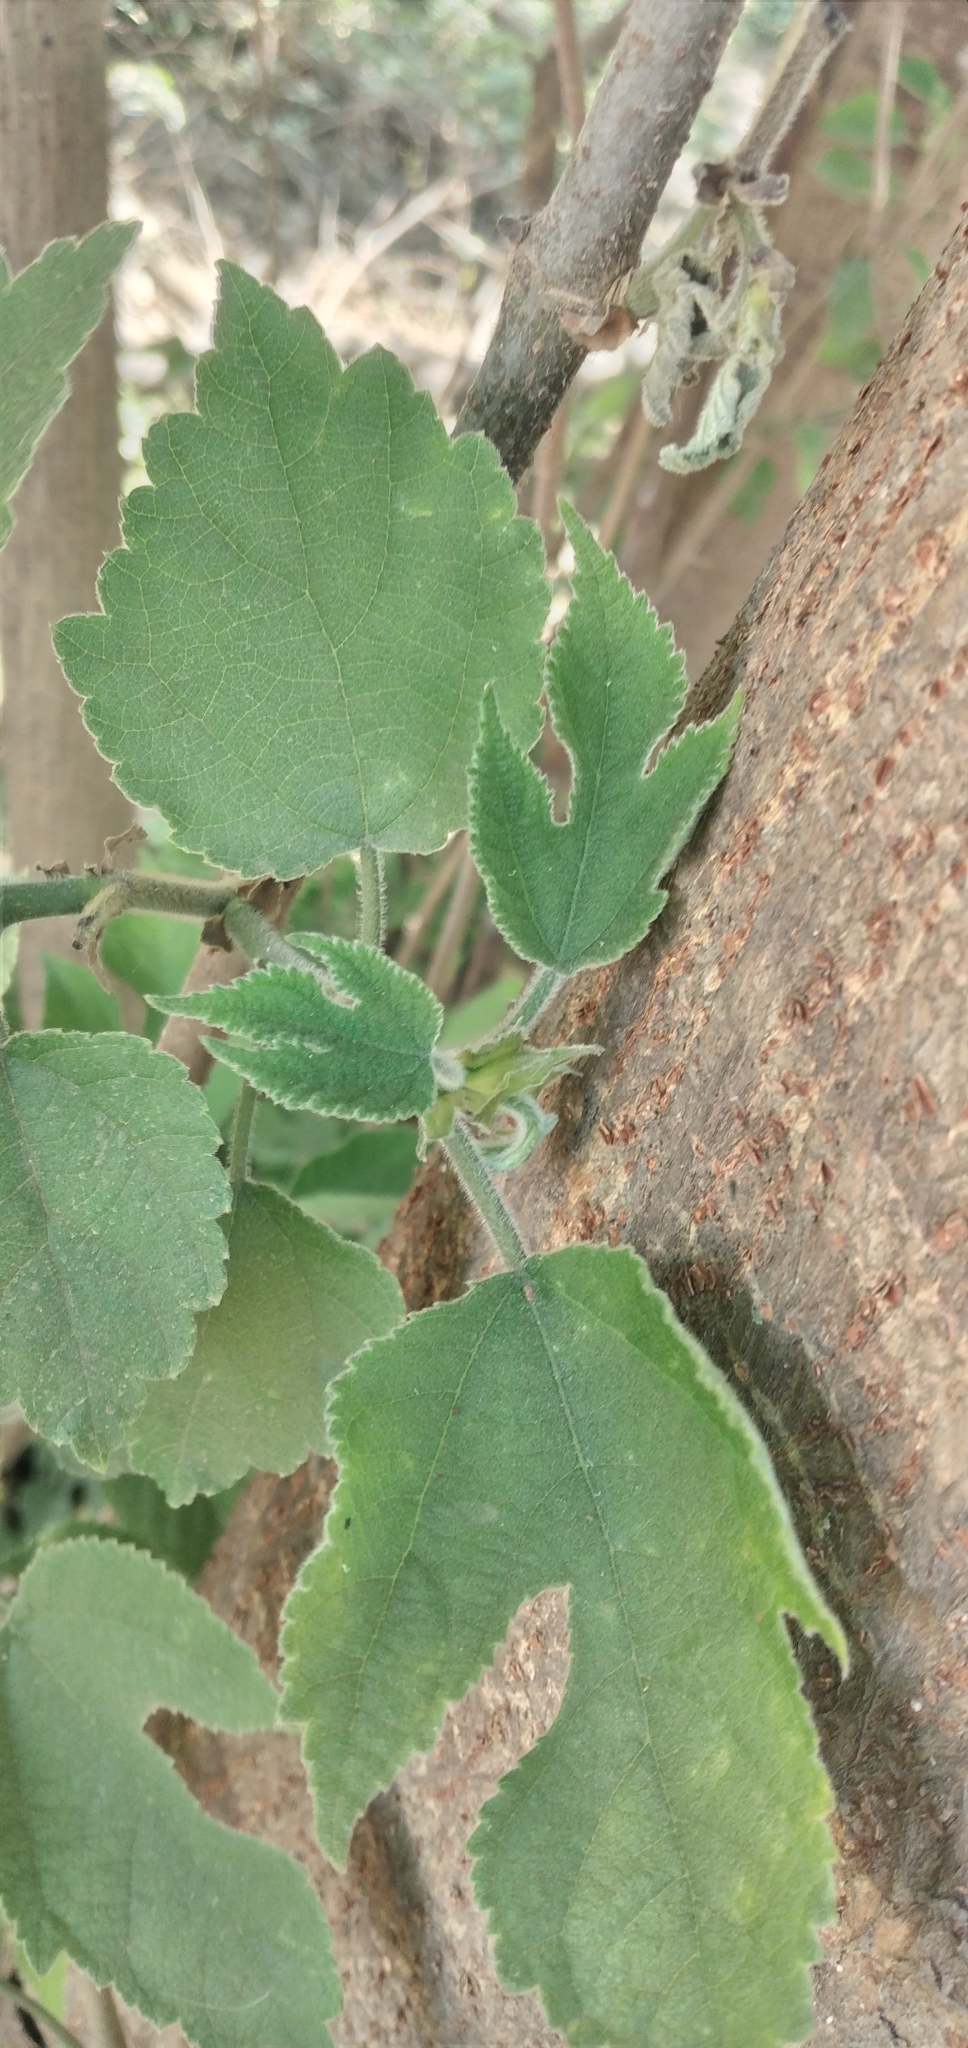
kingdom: Plantae
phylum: Tracheophyta
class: Magnoliopsida
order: Rosales
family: Moraceae
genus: Broussonetia
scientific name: Broussonetia papyrifera
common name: Paper mulberry
